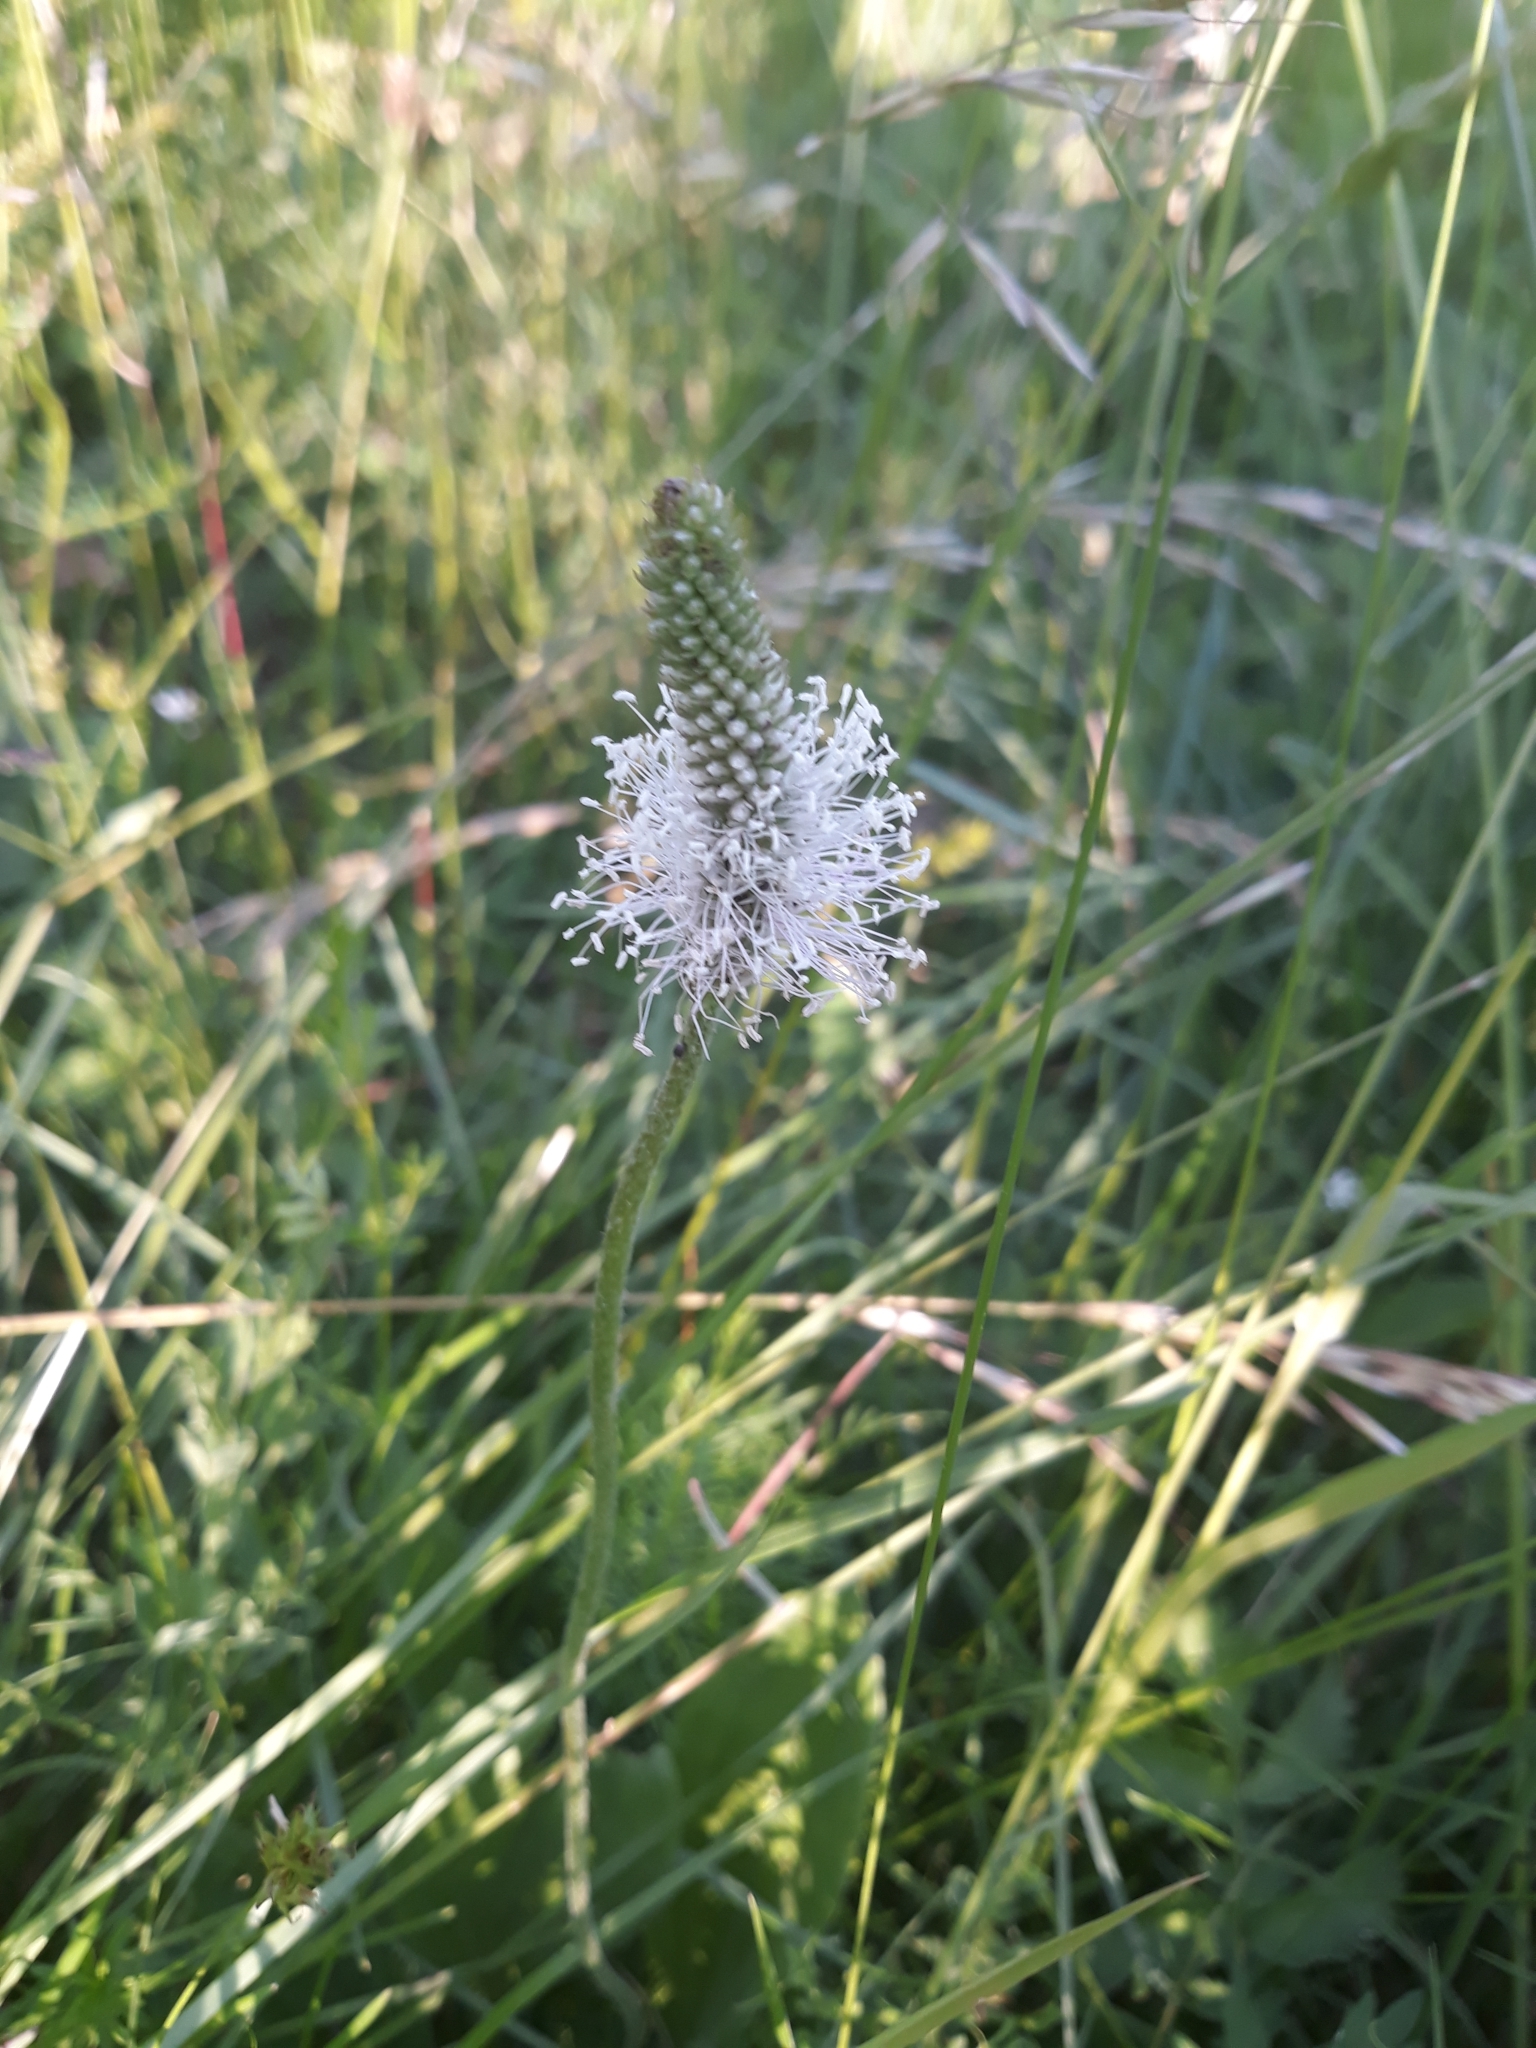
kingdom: Plantae
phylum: Tracheophyta
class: Magnoliopsida
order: Lamiales
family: Plantaginaceae
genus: Plantago
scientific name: Plantago media
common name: Hoary plantain
